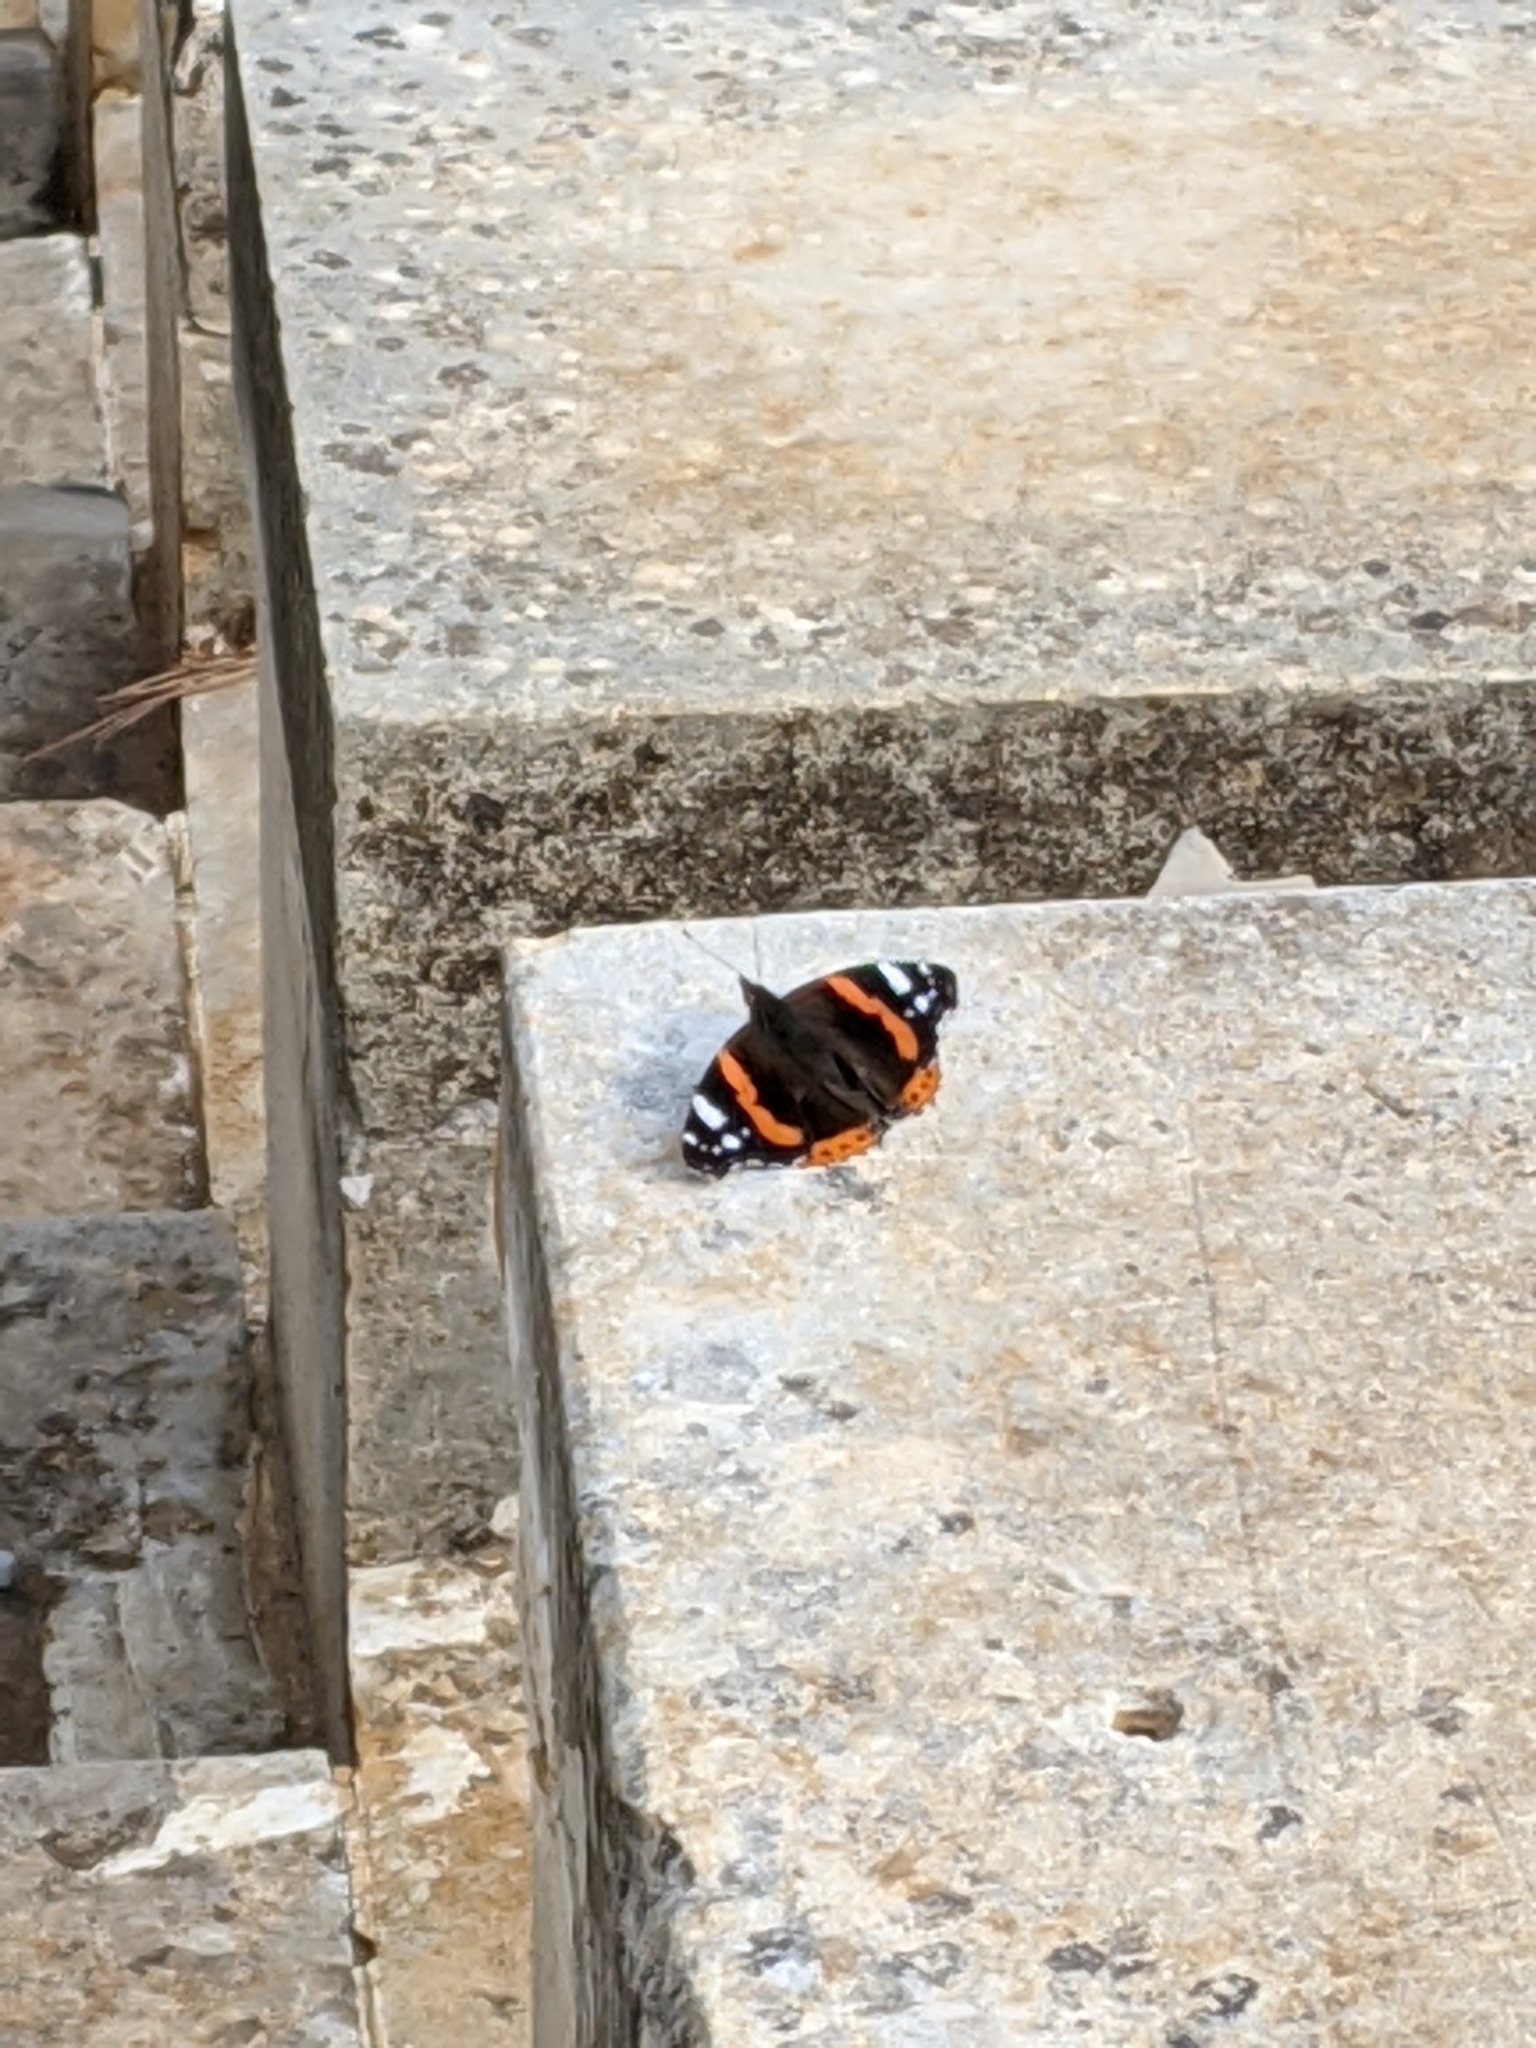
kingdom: Animalia
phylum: Arthropoda
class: Insecta
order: Lepidoptera
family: Nymphalidae
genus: Vanessa
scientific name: Vanessa atalanta
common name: Red admiral
